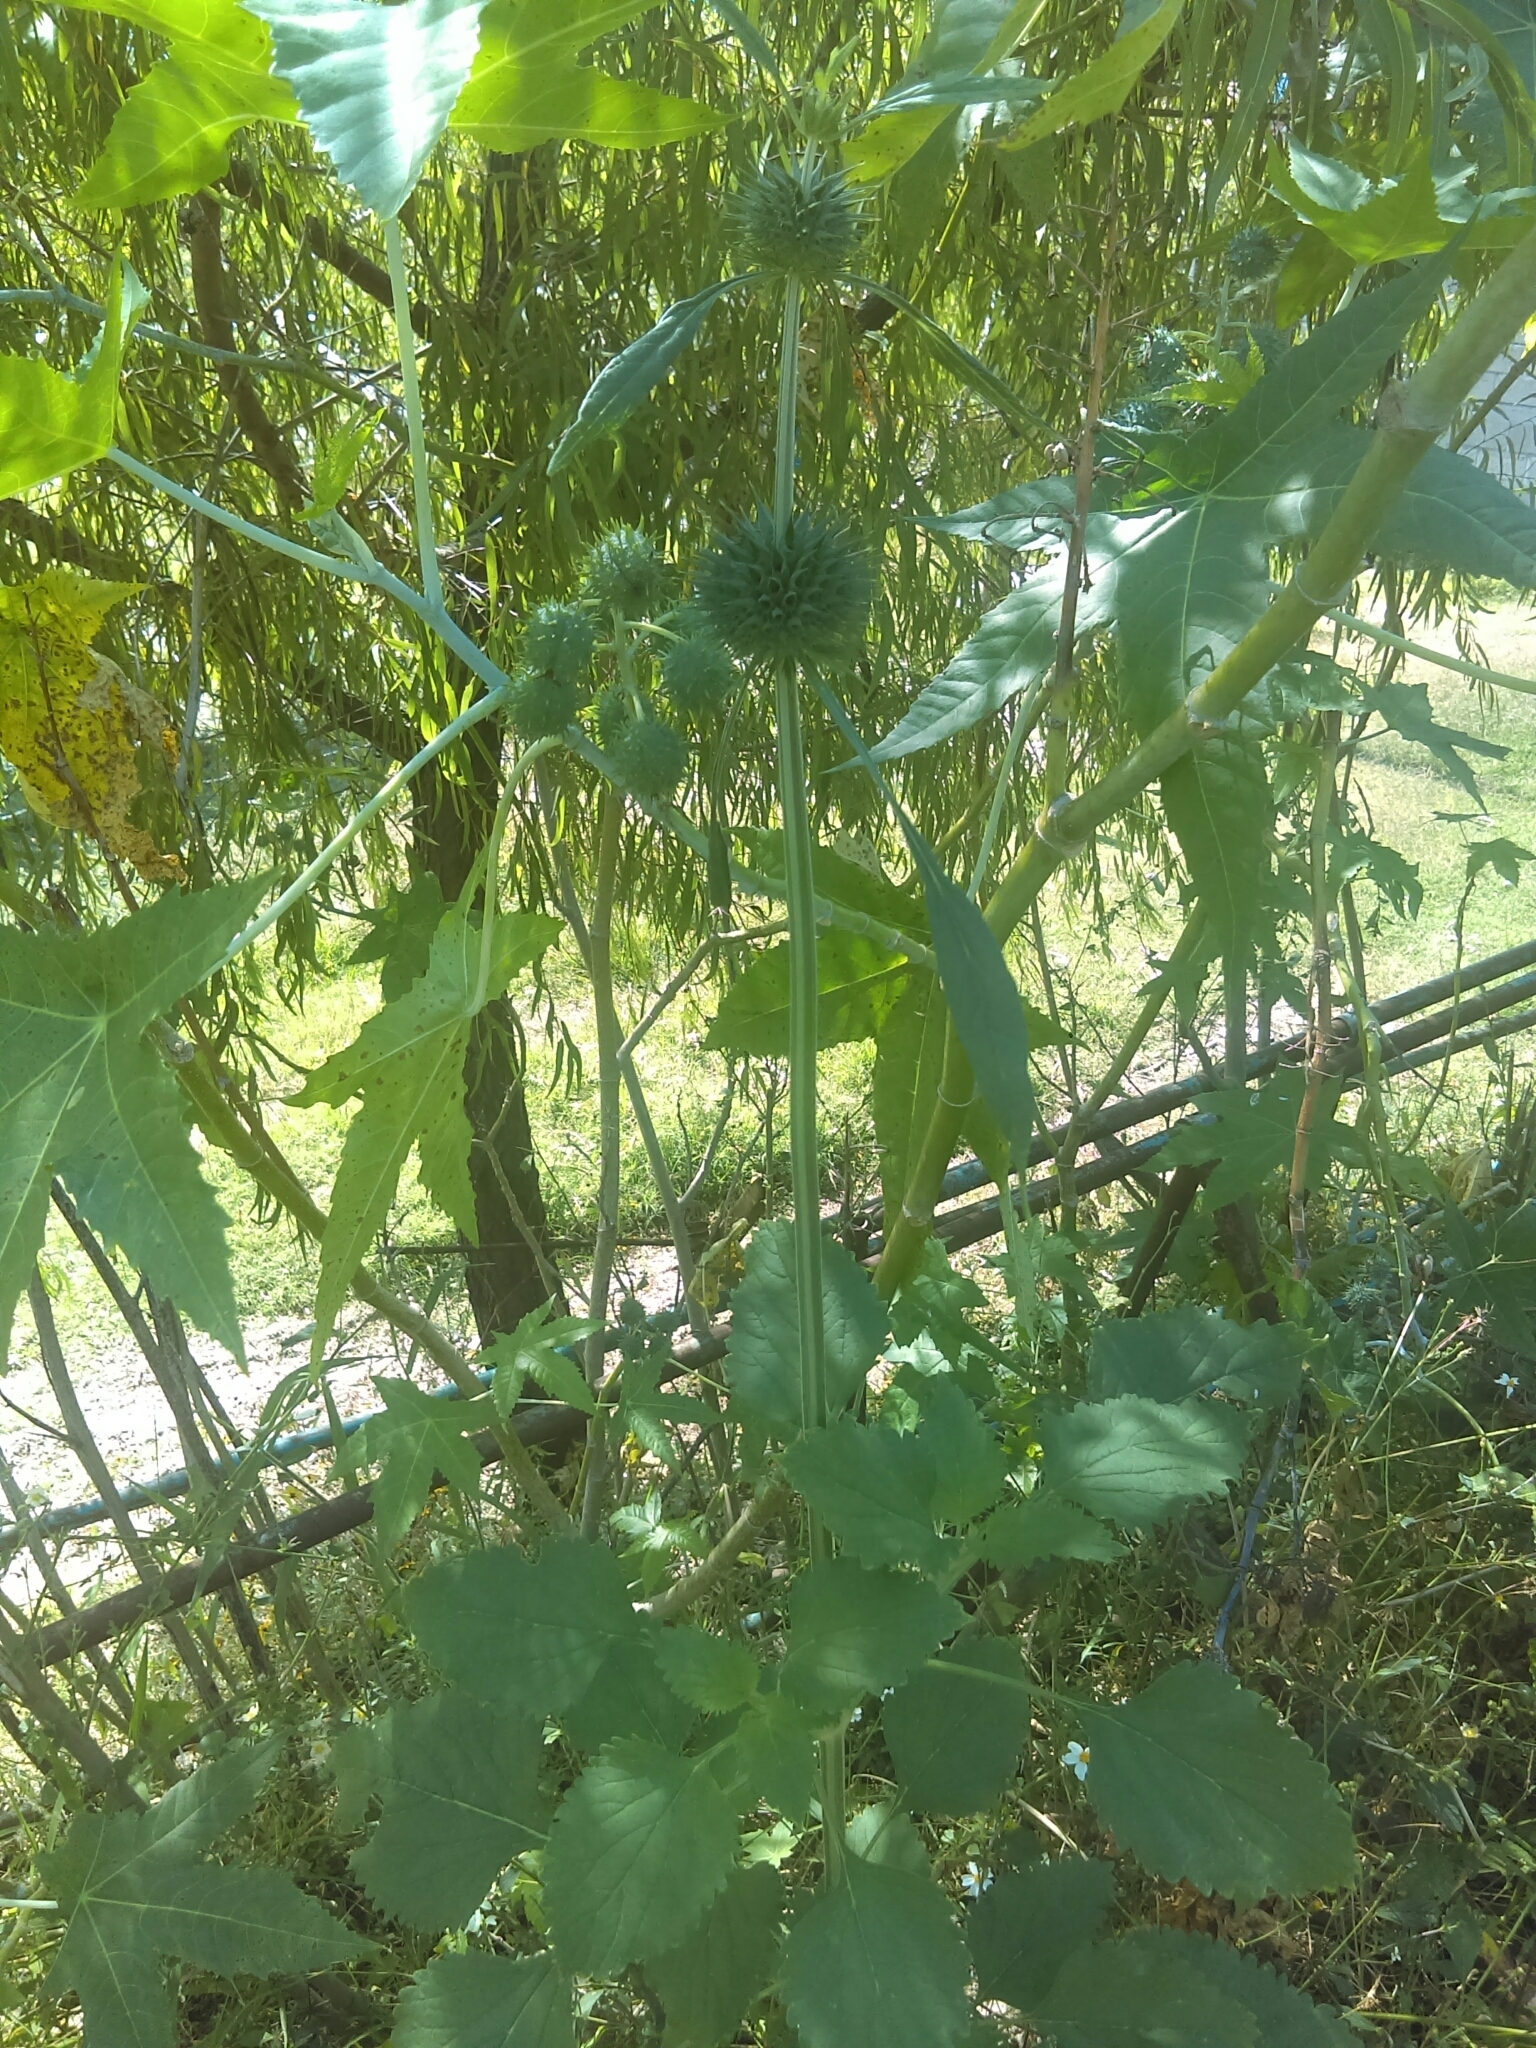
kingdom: Plantae
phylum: Tracheophyta
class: Magnoliopsida
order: Lamiales
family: Lamiaceae
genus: Leonotis
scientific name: Leonotis nepetifolia
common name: Christmas candlestick
